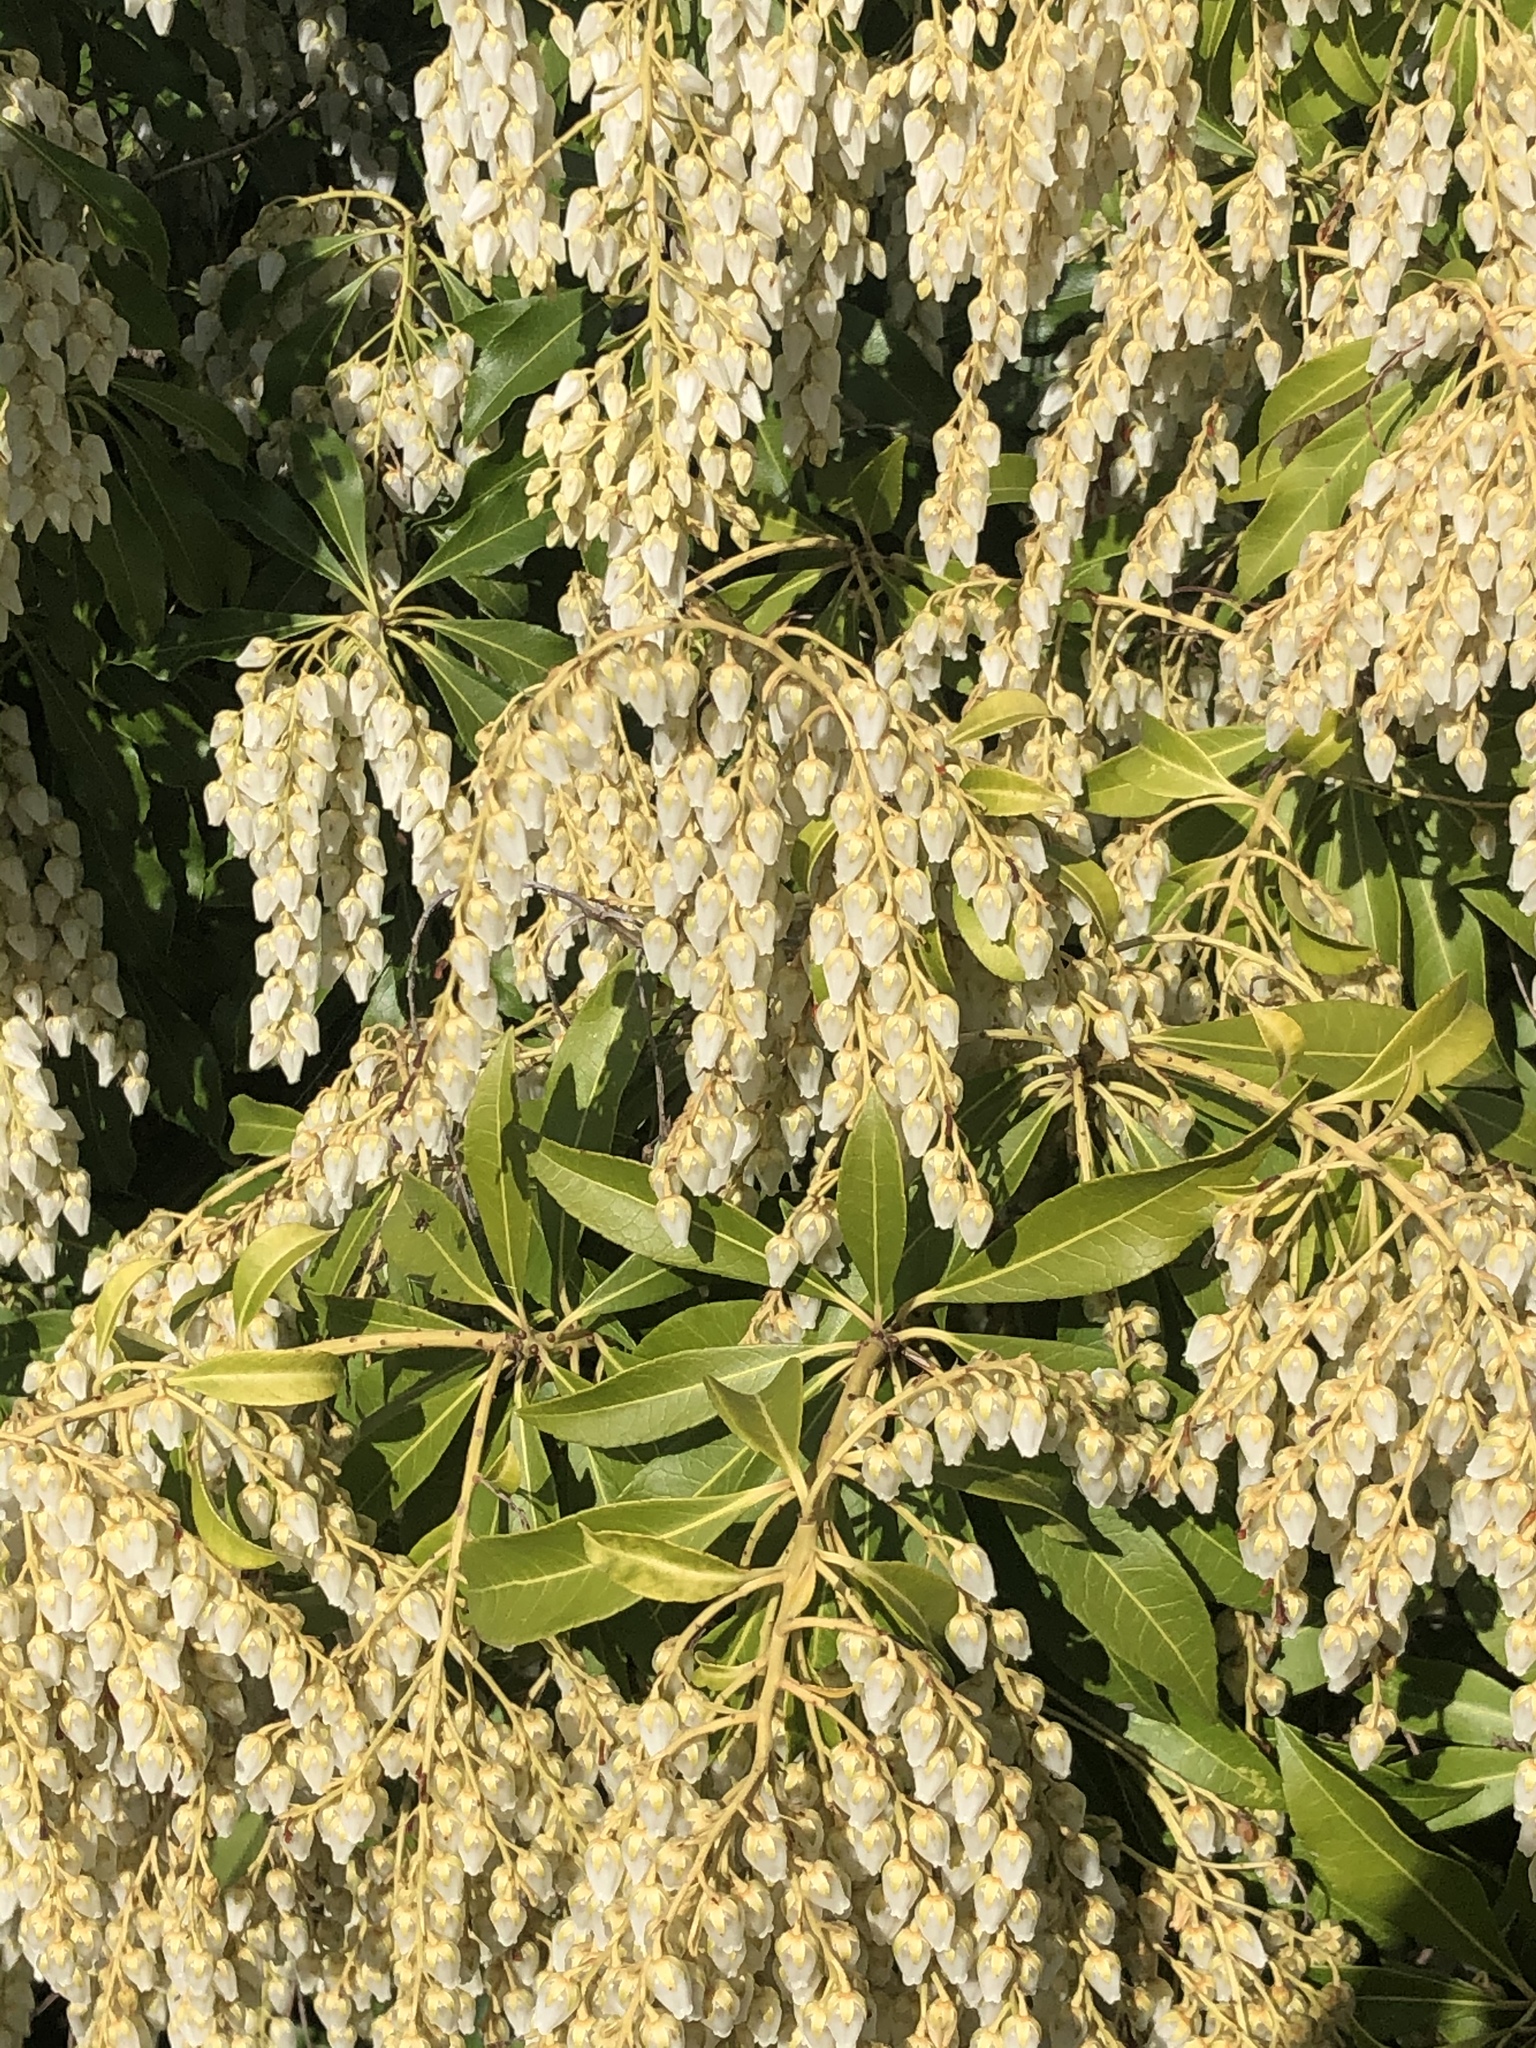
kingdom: Plantae
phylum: Tracheophyta
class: Magnoliopsida
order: Ericales
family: Ericaceae
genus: Pieris
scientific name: Pieris japonica
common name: Japanese pieris
